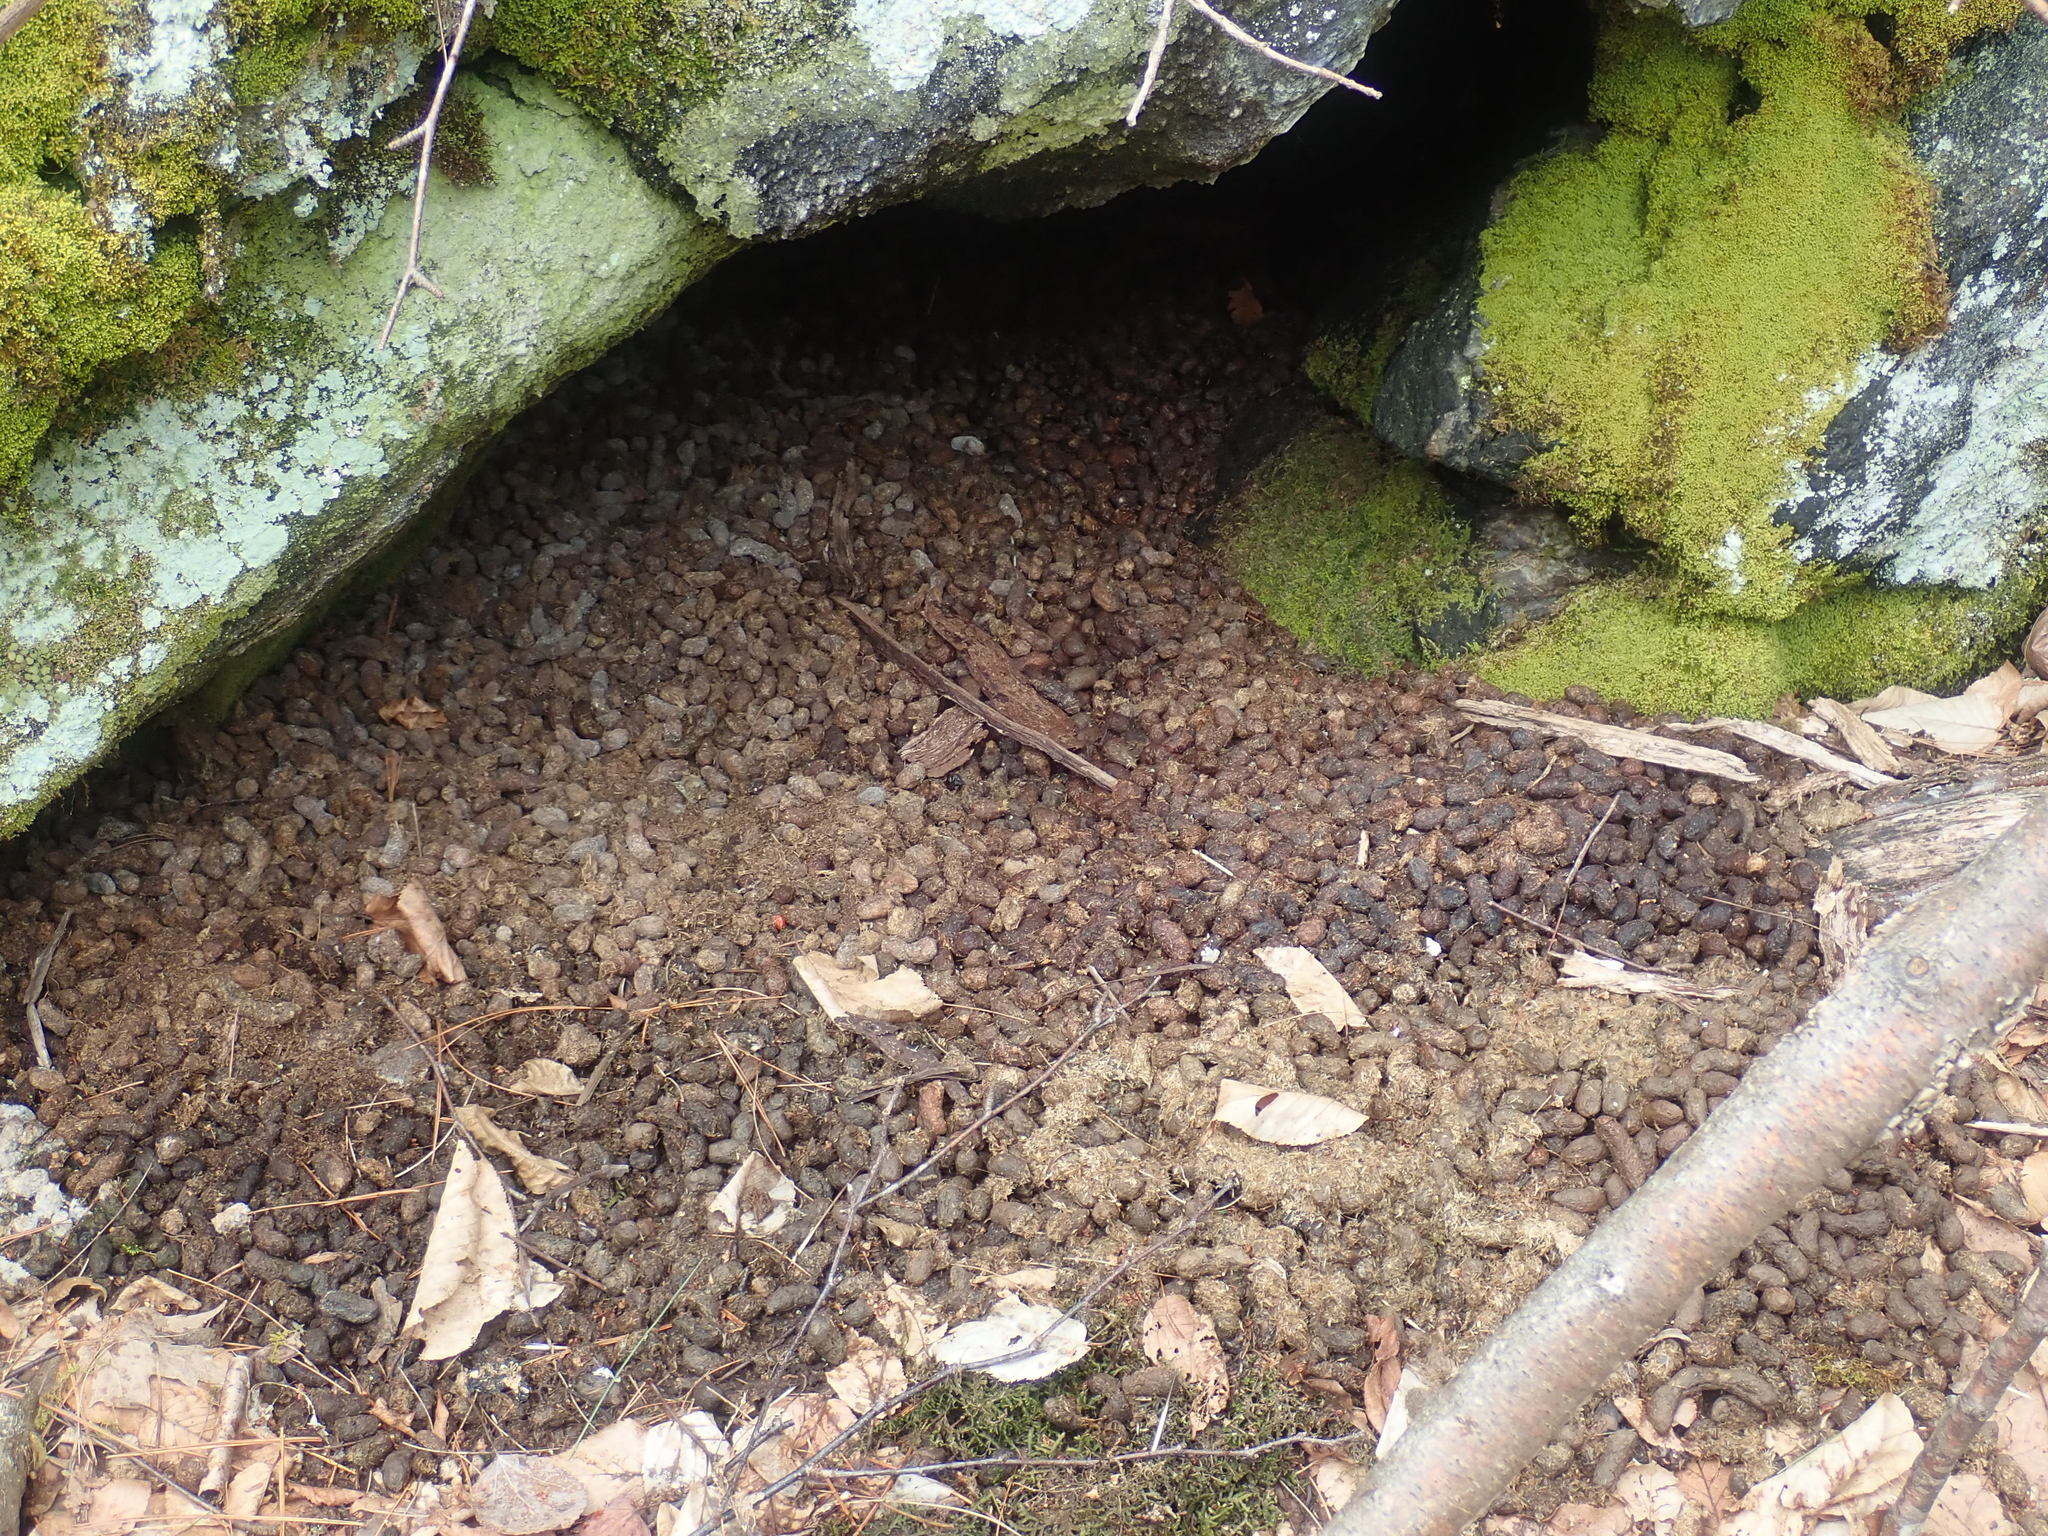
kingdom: Animalia
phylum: Chordata
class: Mammalia
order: Rodentia
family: Erethizontidae
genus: Erethizon
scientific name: Erethizon dorsatus
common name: North american porcupine
